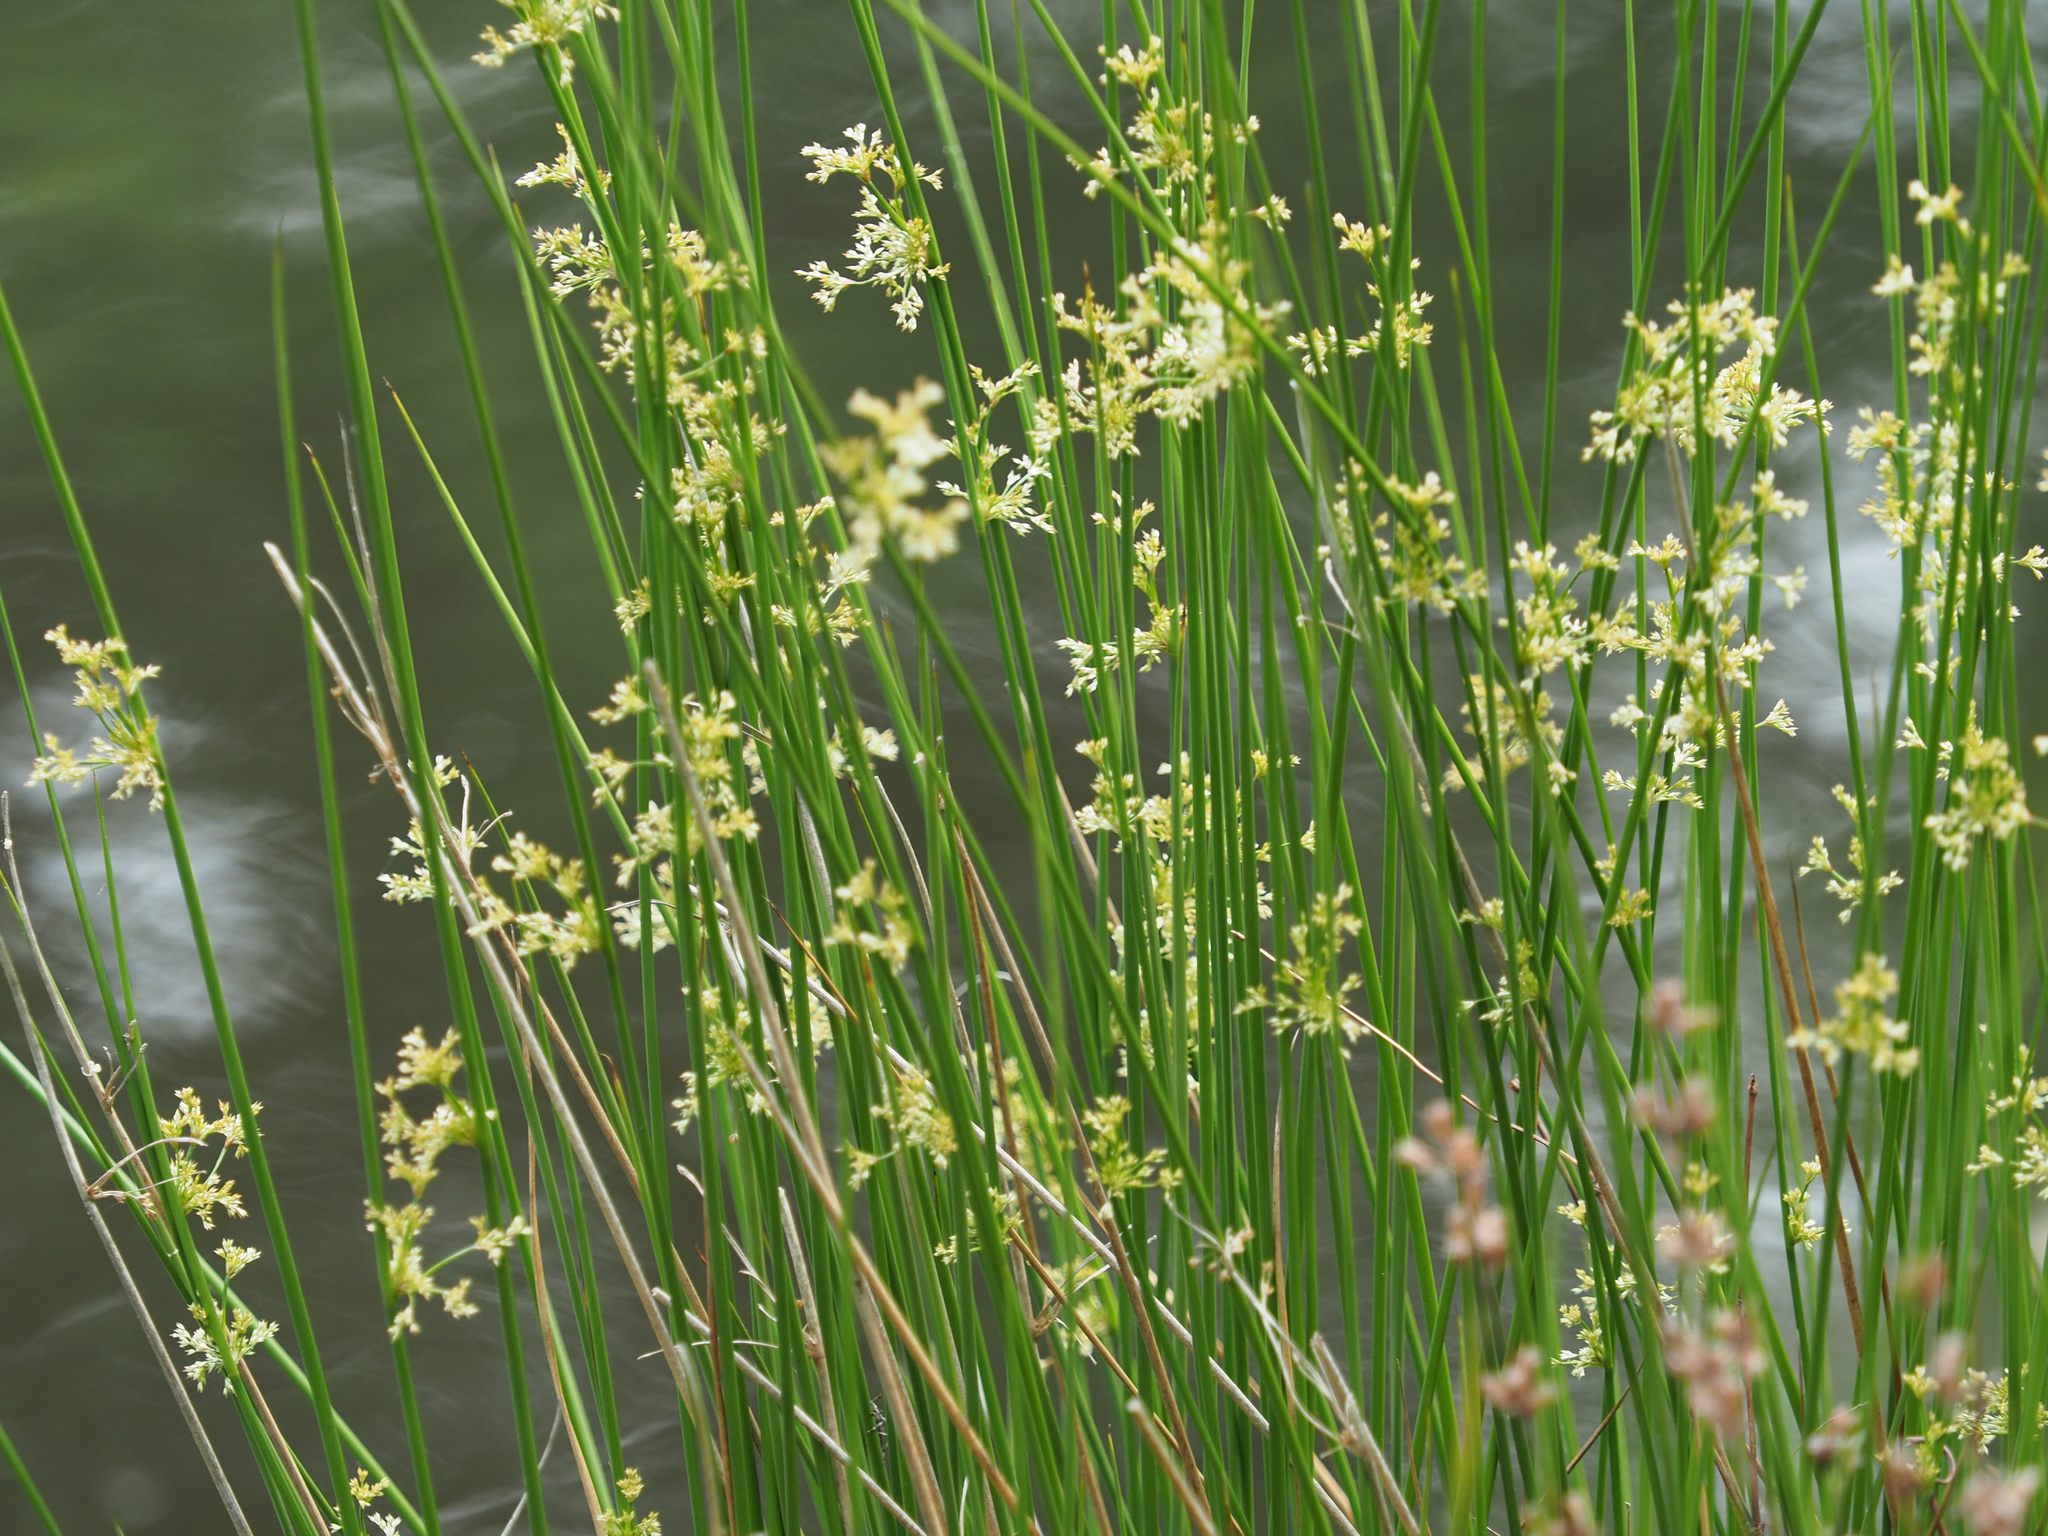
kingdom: Plantae
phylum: Tracheophyta
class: Liliopsida
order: Poales
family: Juncaceae
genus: Juncus
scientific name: Juncus effusus
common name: Soft rush
